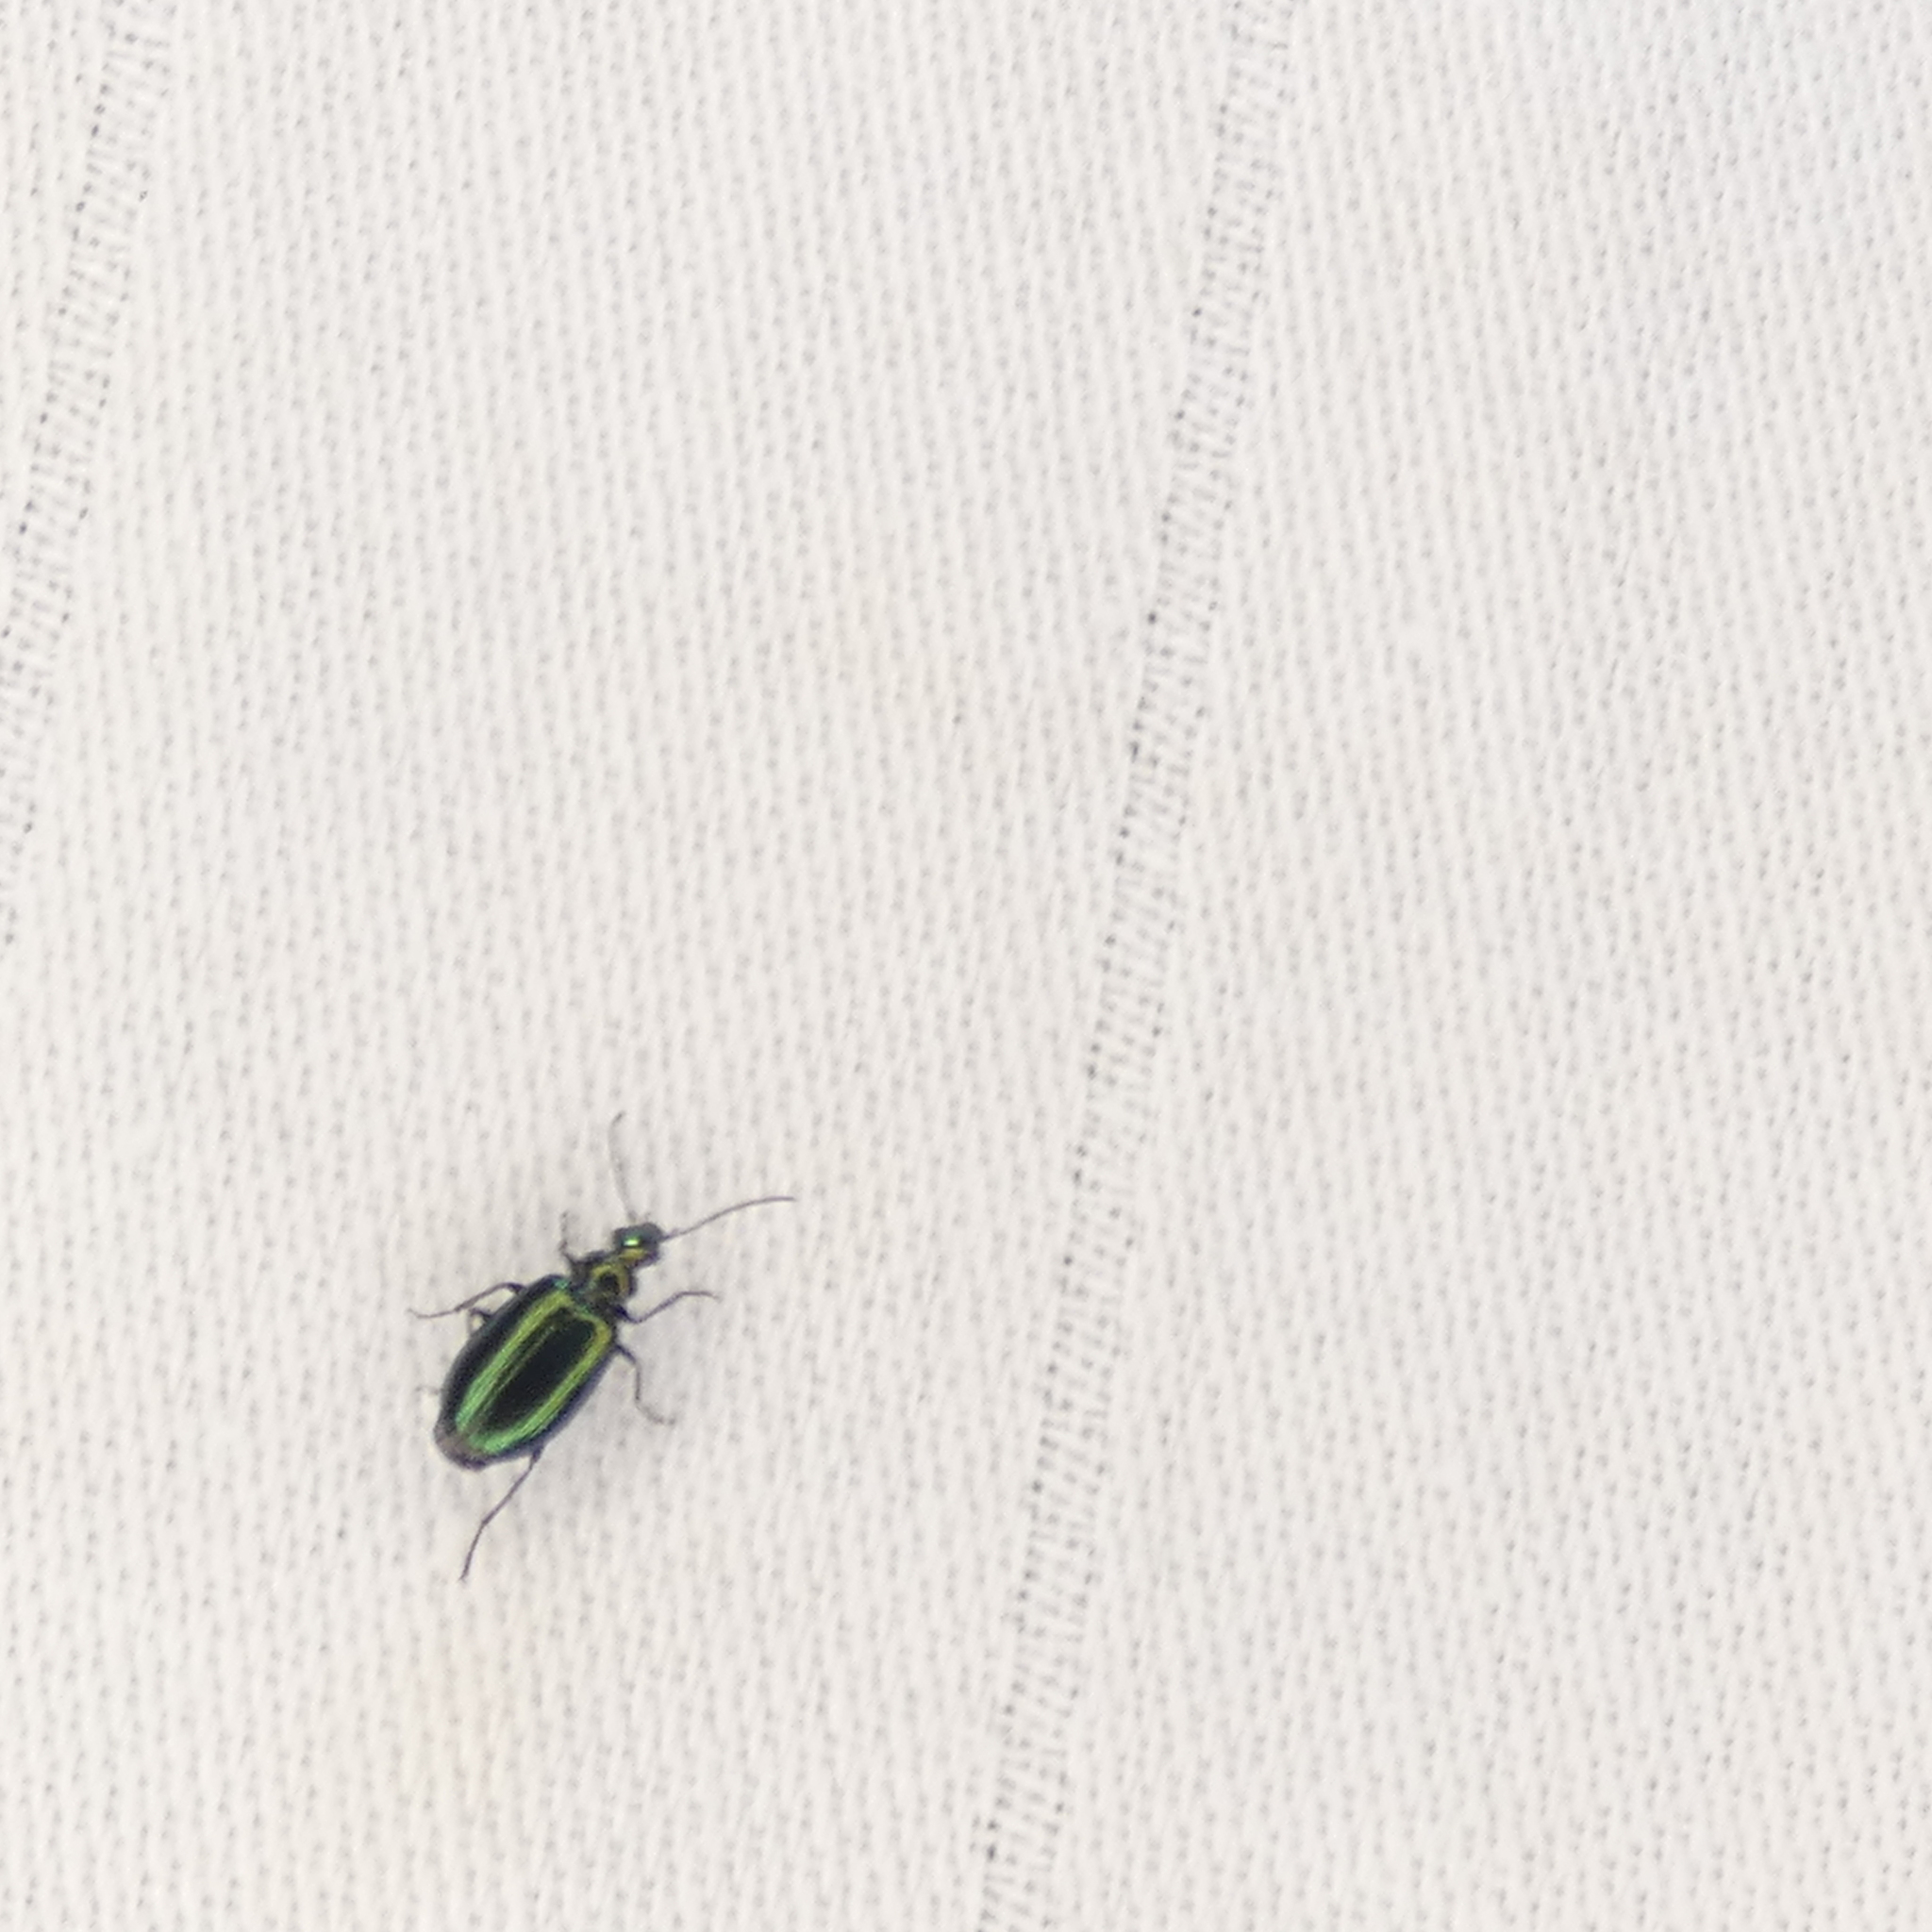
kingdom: Animalia
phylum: Arthropoda
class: Insecta
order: Coleoptera
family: Carabidae
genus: Lebia
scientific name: Lebia viridis
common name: Flower lebia beetle
